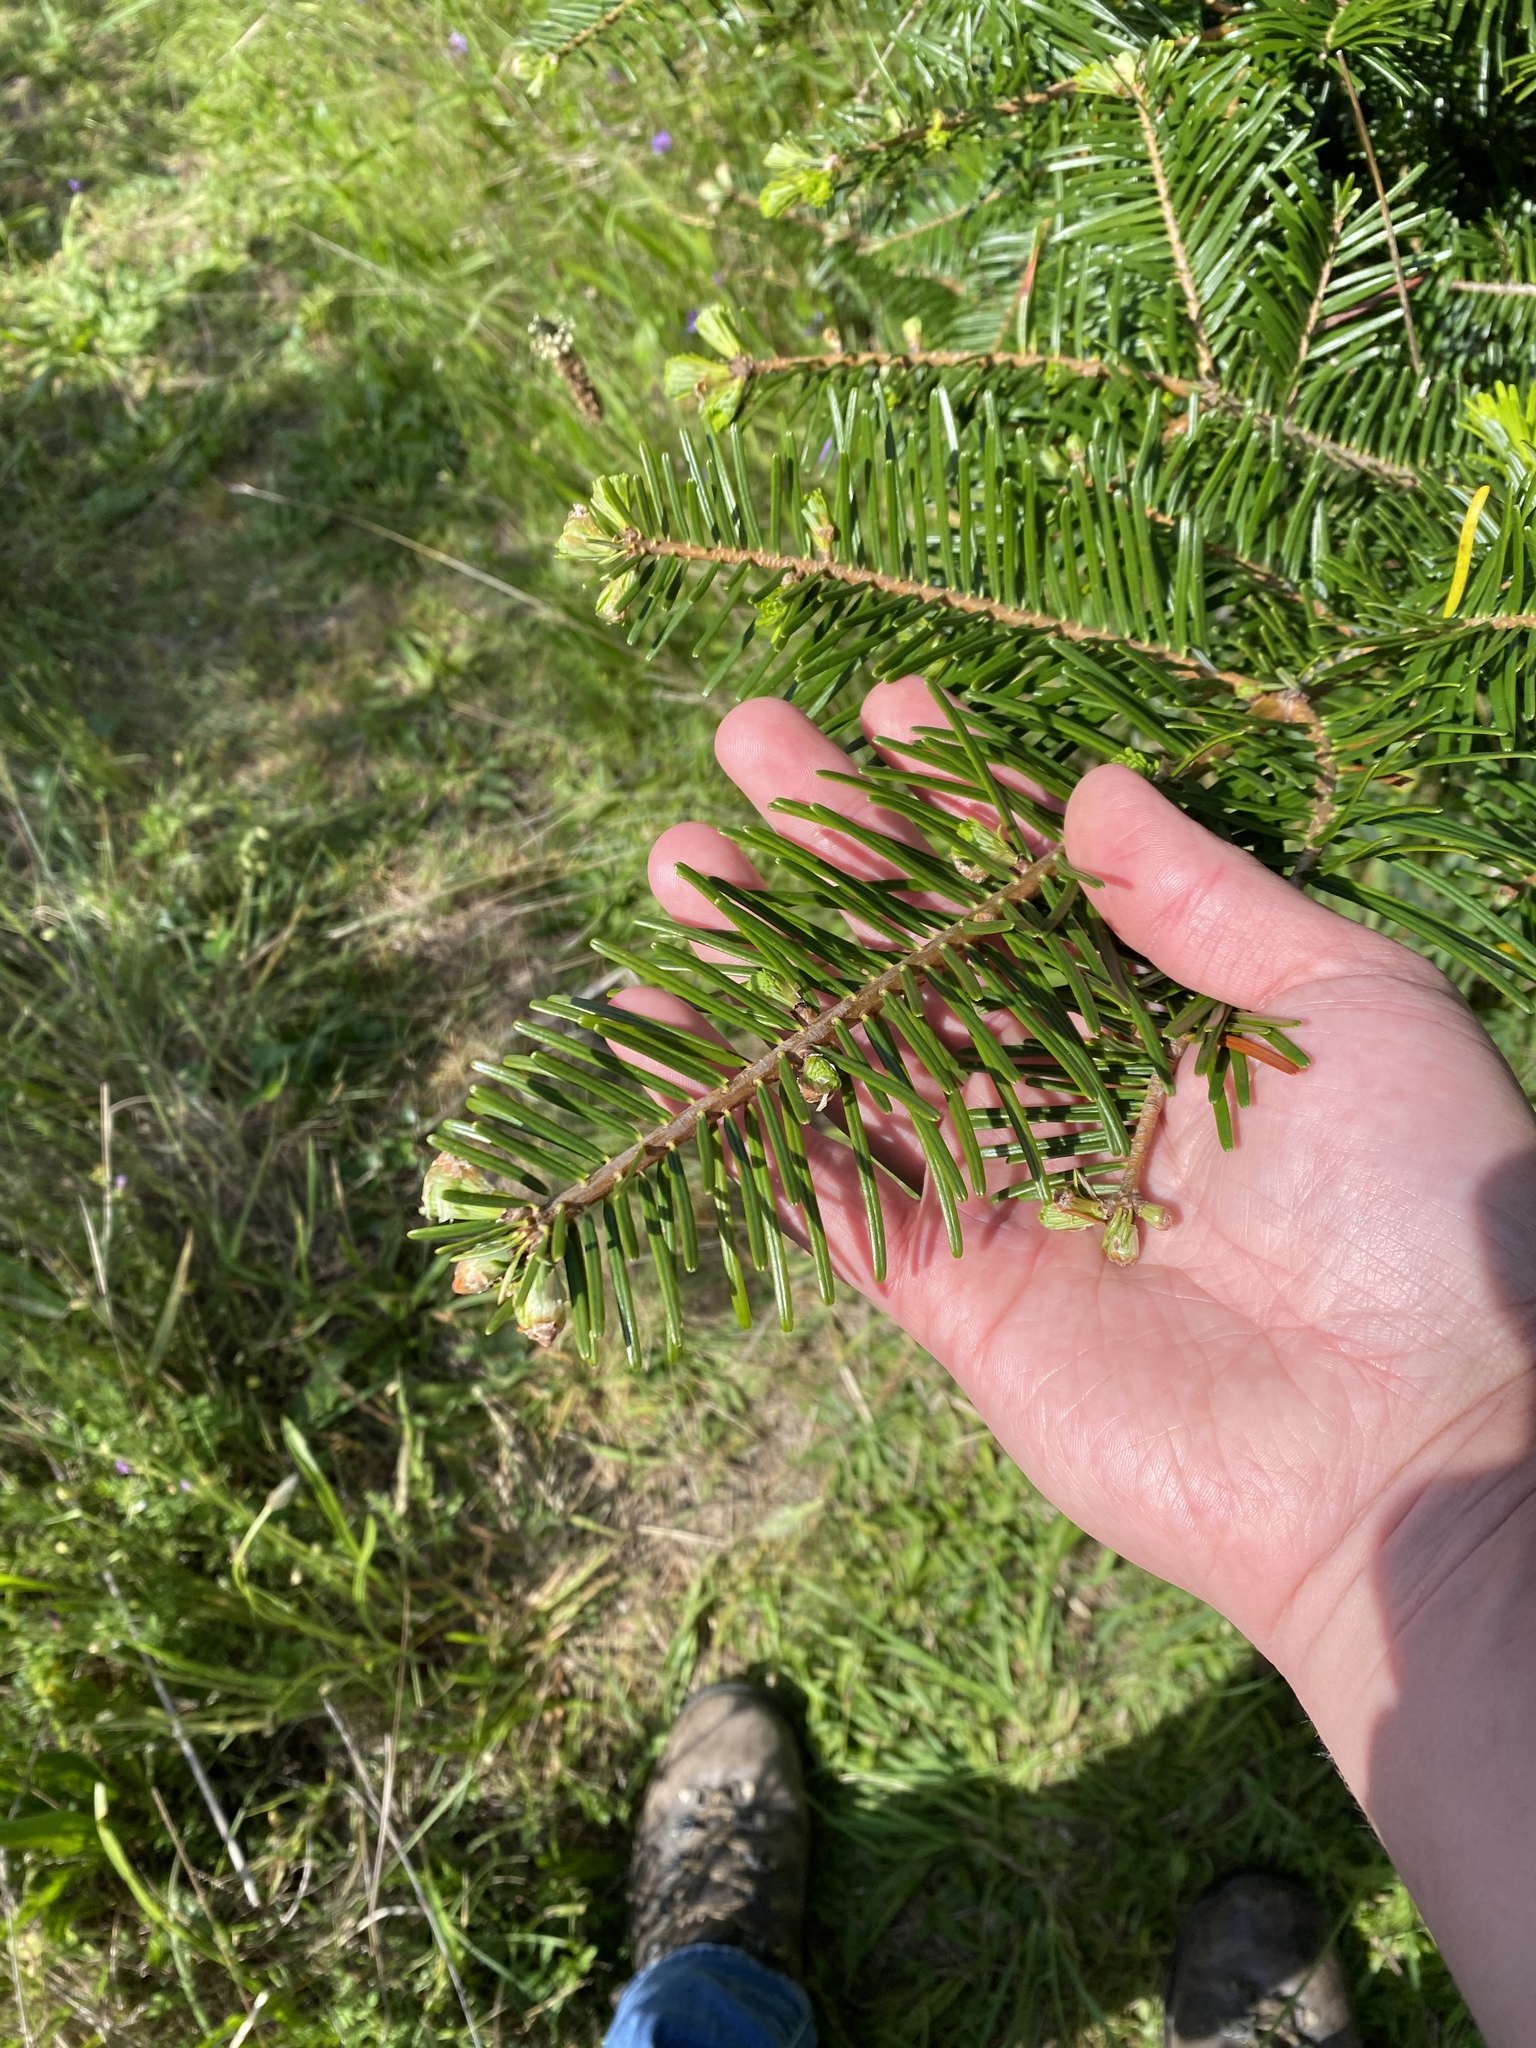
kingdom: Plantae
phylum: Tracheophyta
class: Pinopsida
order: Pinales
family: Pinaceae
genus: Abies
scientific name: Abies grandis
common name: Giant fir
